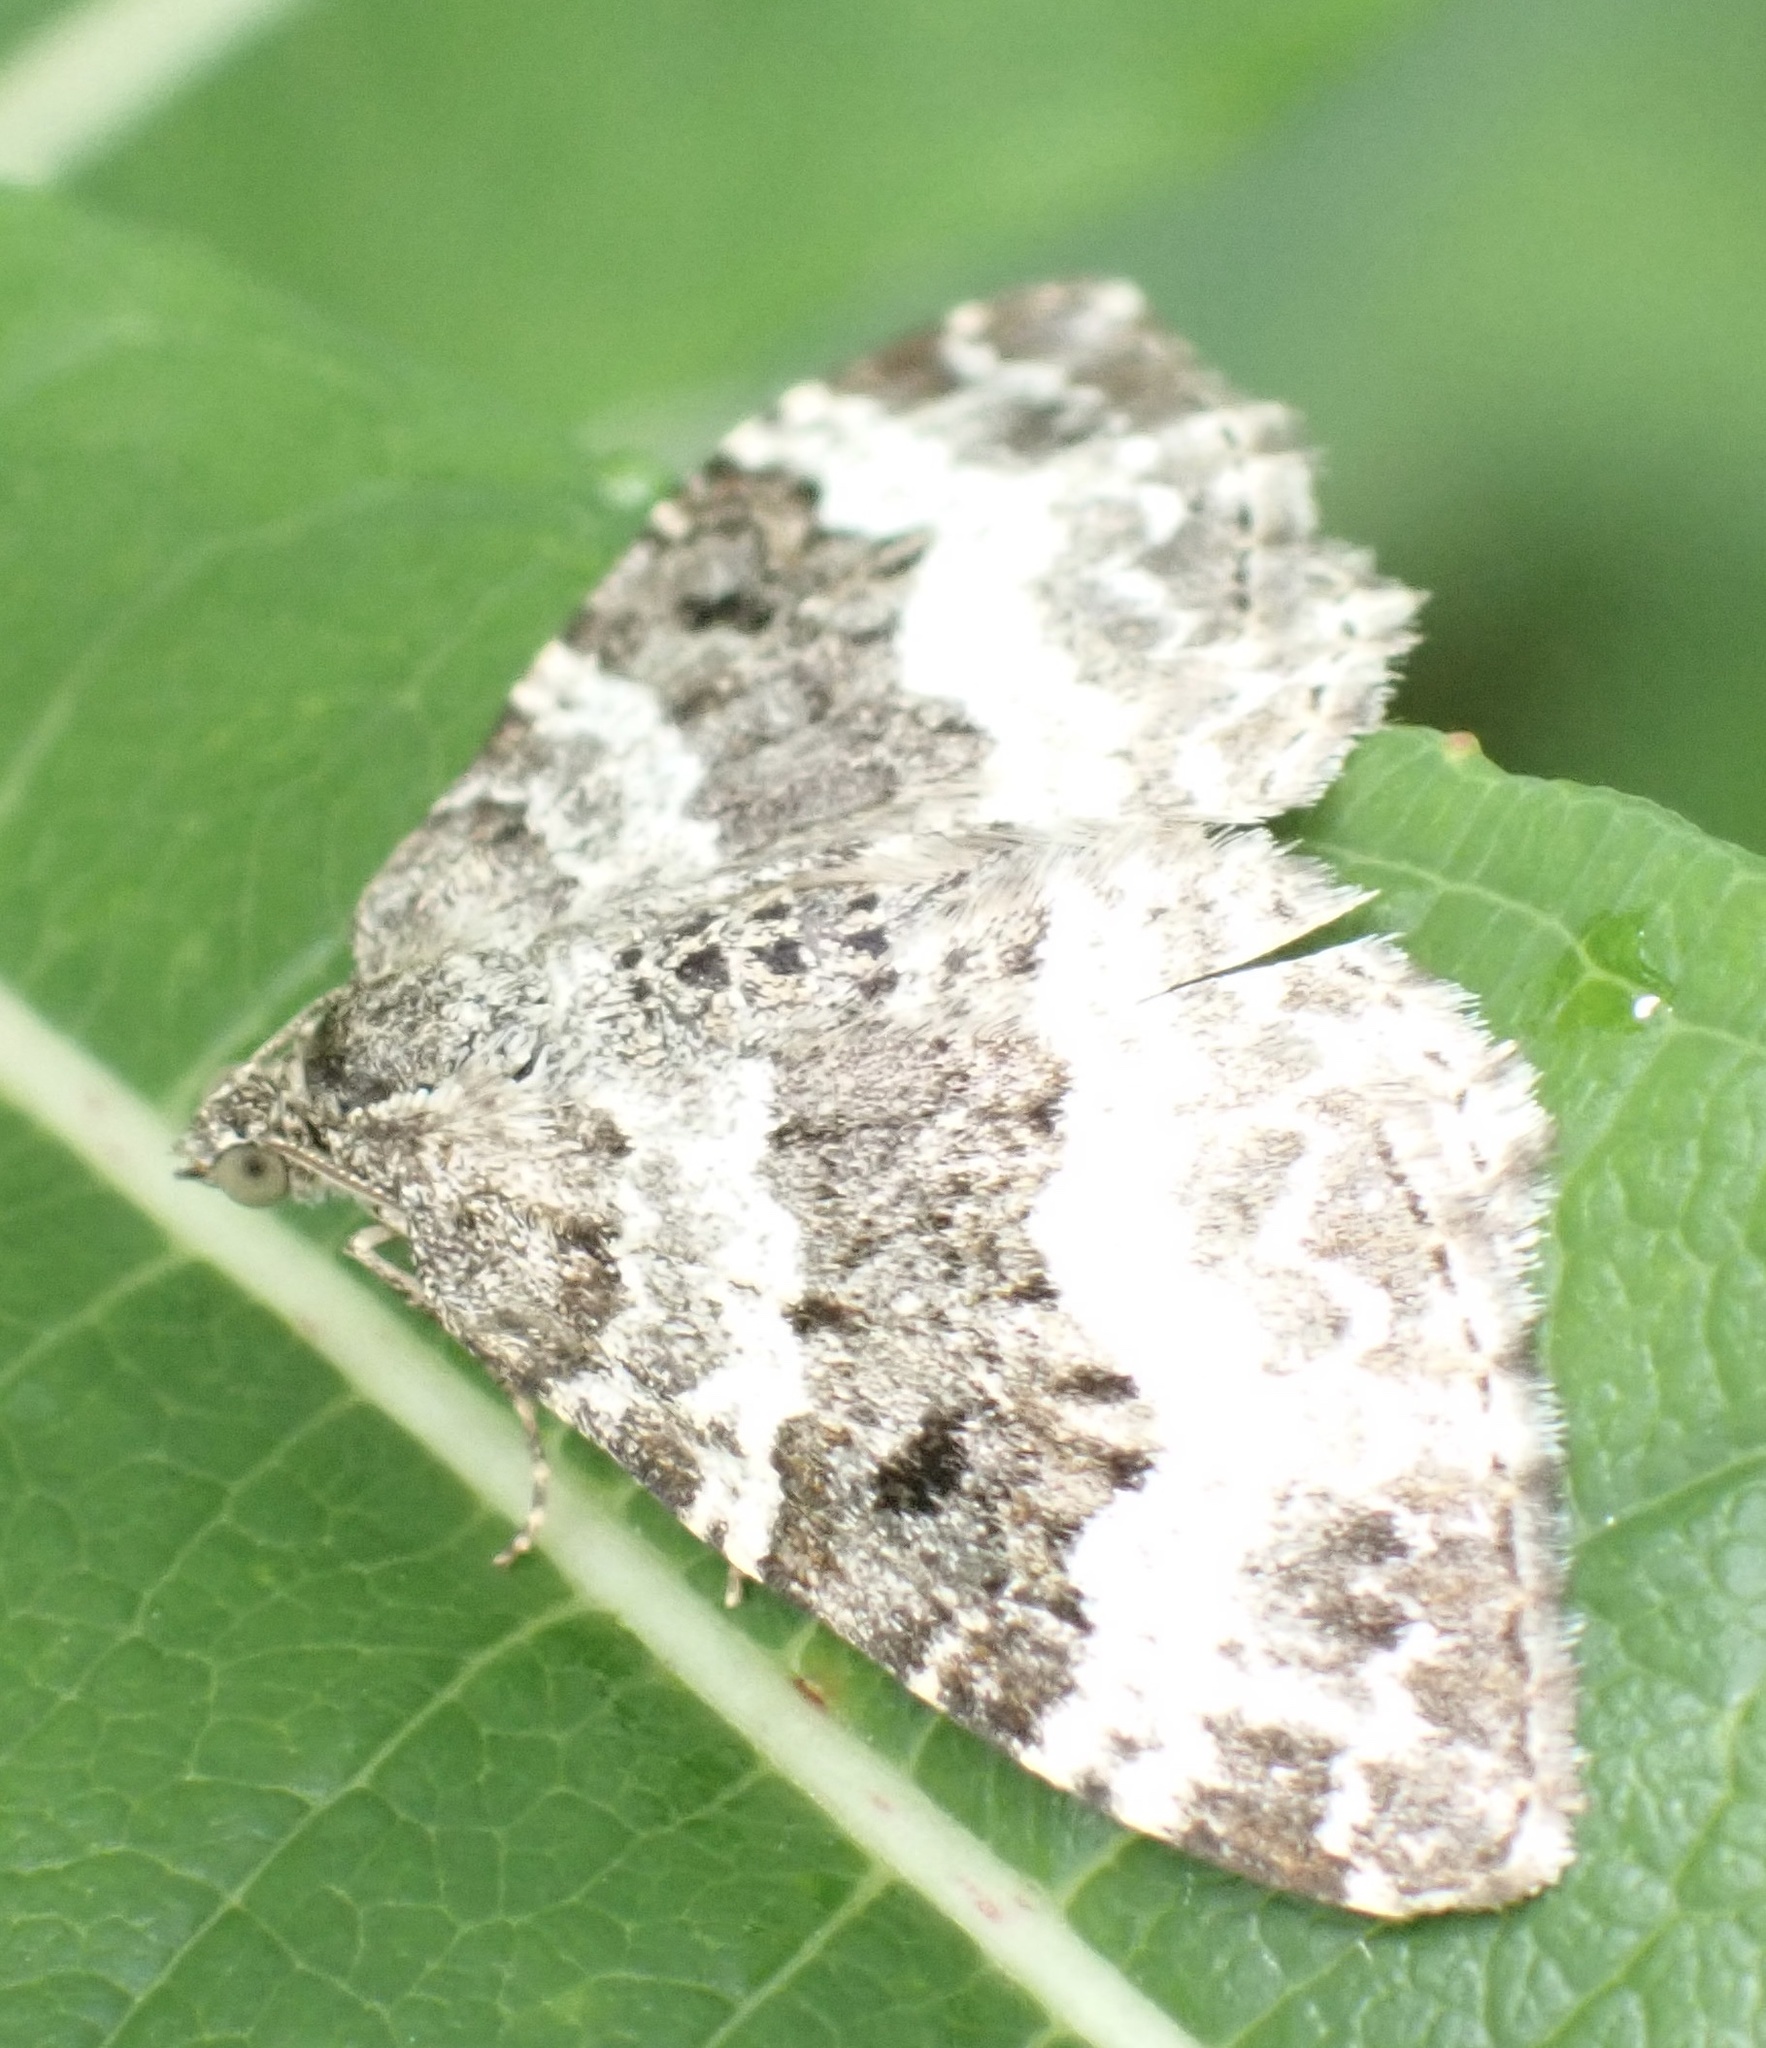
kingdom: Animalia
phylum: Arthropoda
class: Insecta
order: Lepidoptera
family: Geometridae
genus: Epirrhoe
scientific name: Epirrhoe alternata
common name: Common carpet
